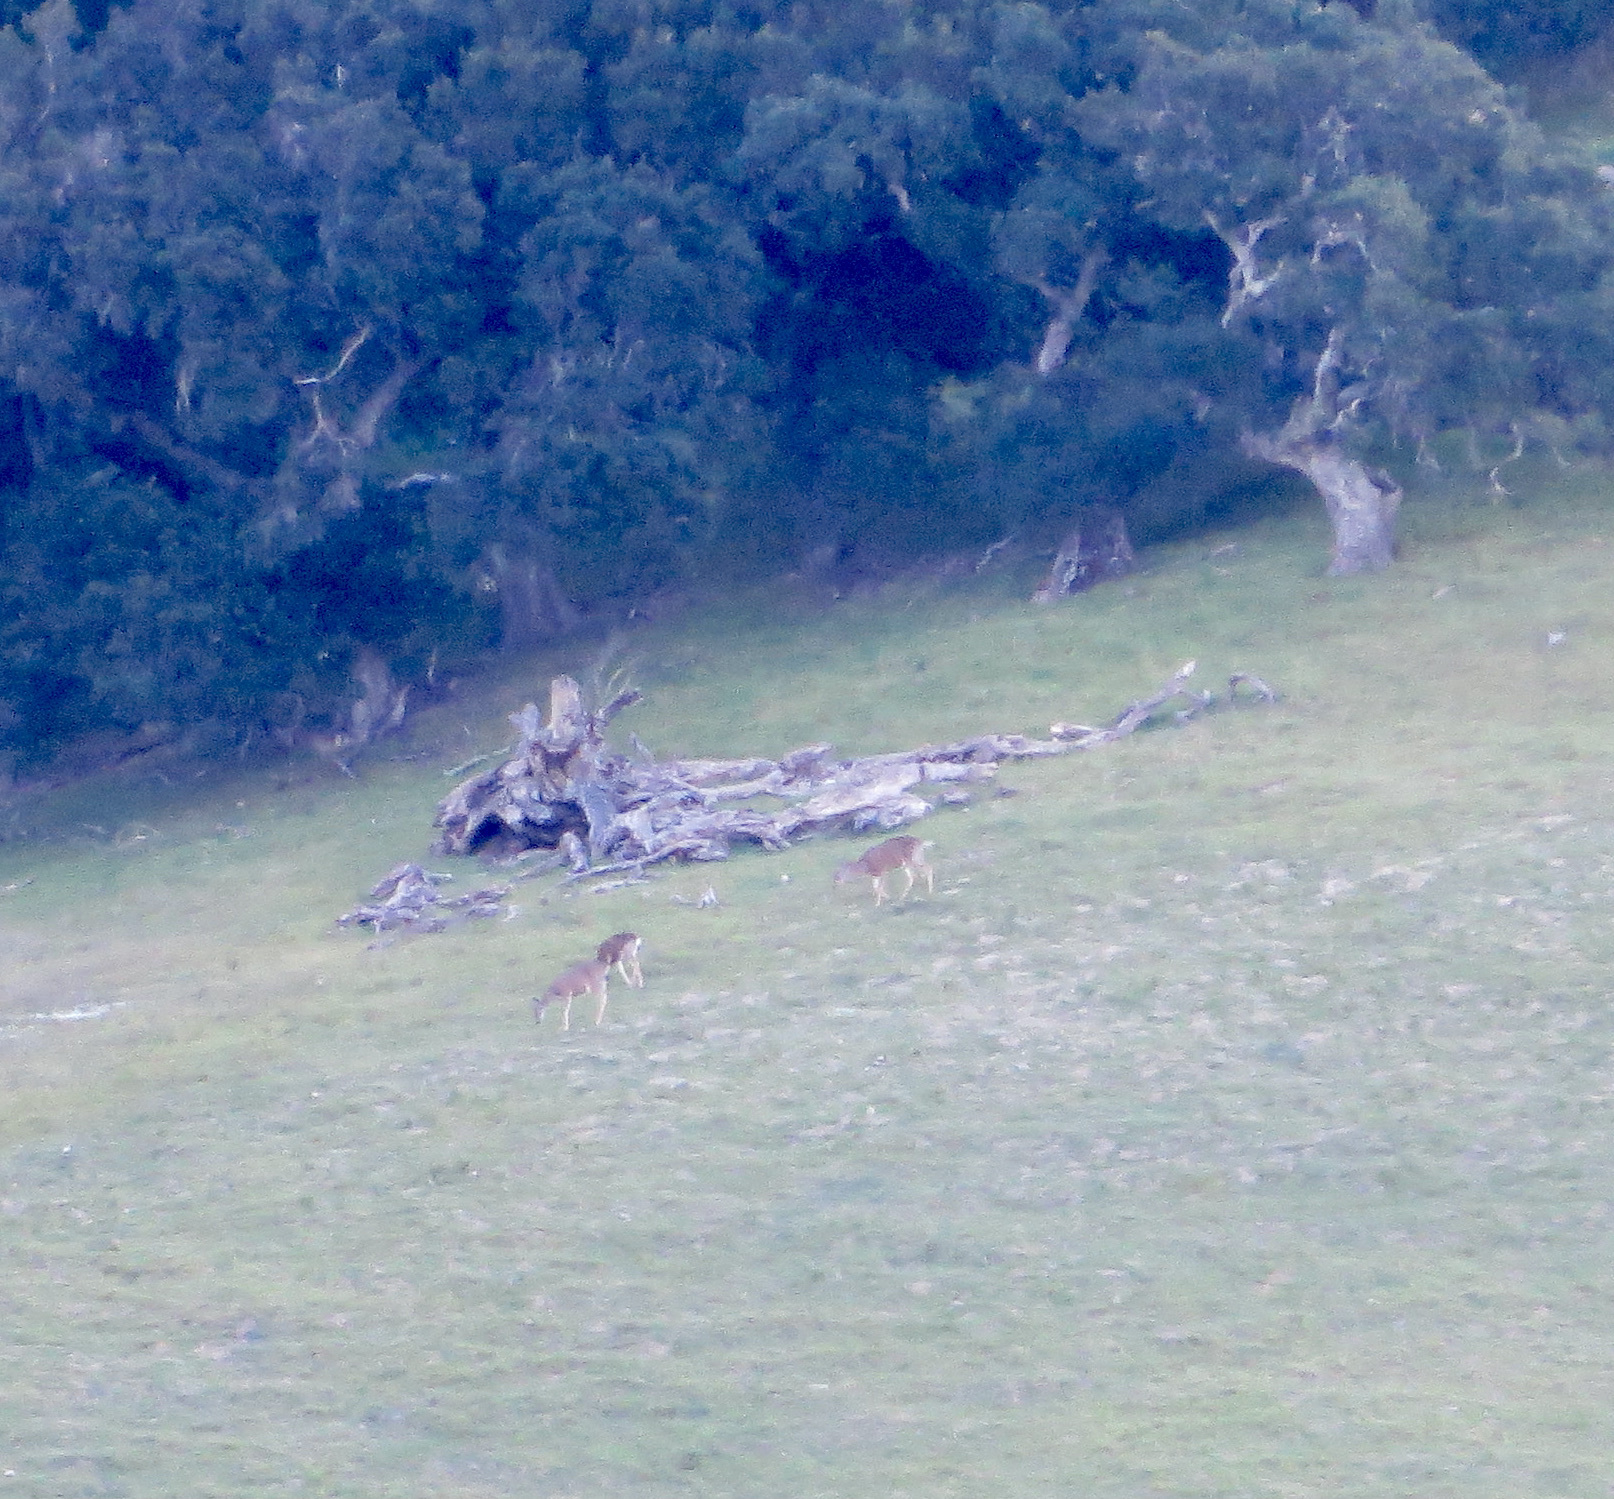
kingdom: Animalia
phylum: Chordata
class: Mammalia
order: Artiodactyla
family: Cervidae
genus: Odocoileus
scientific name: Odocoileus hemionus
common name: Mule deer
